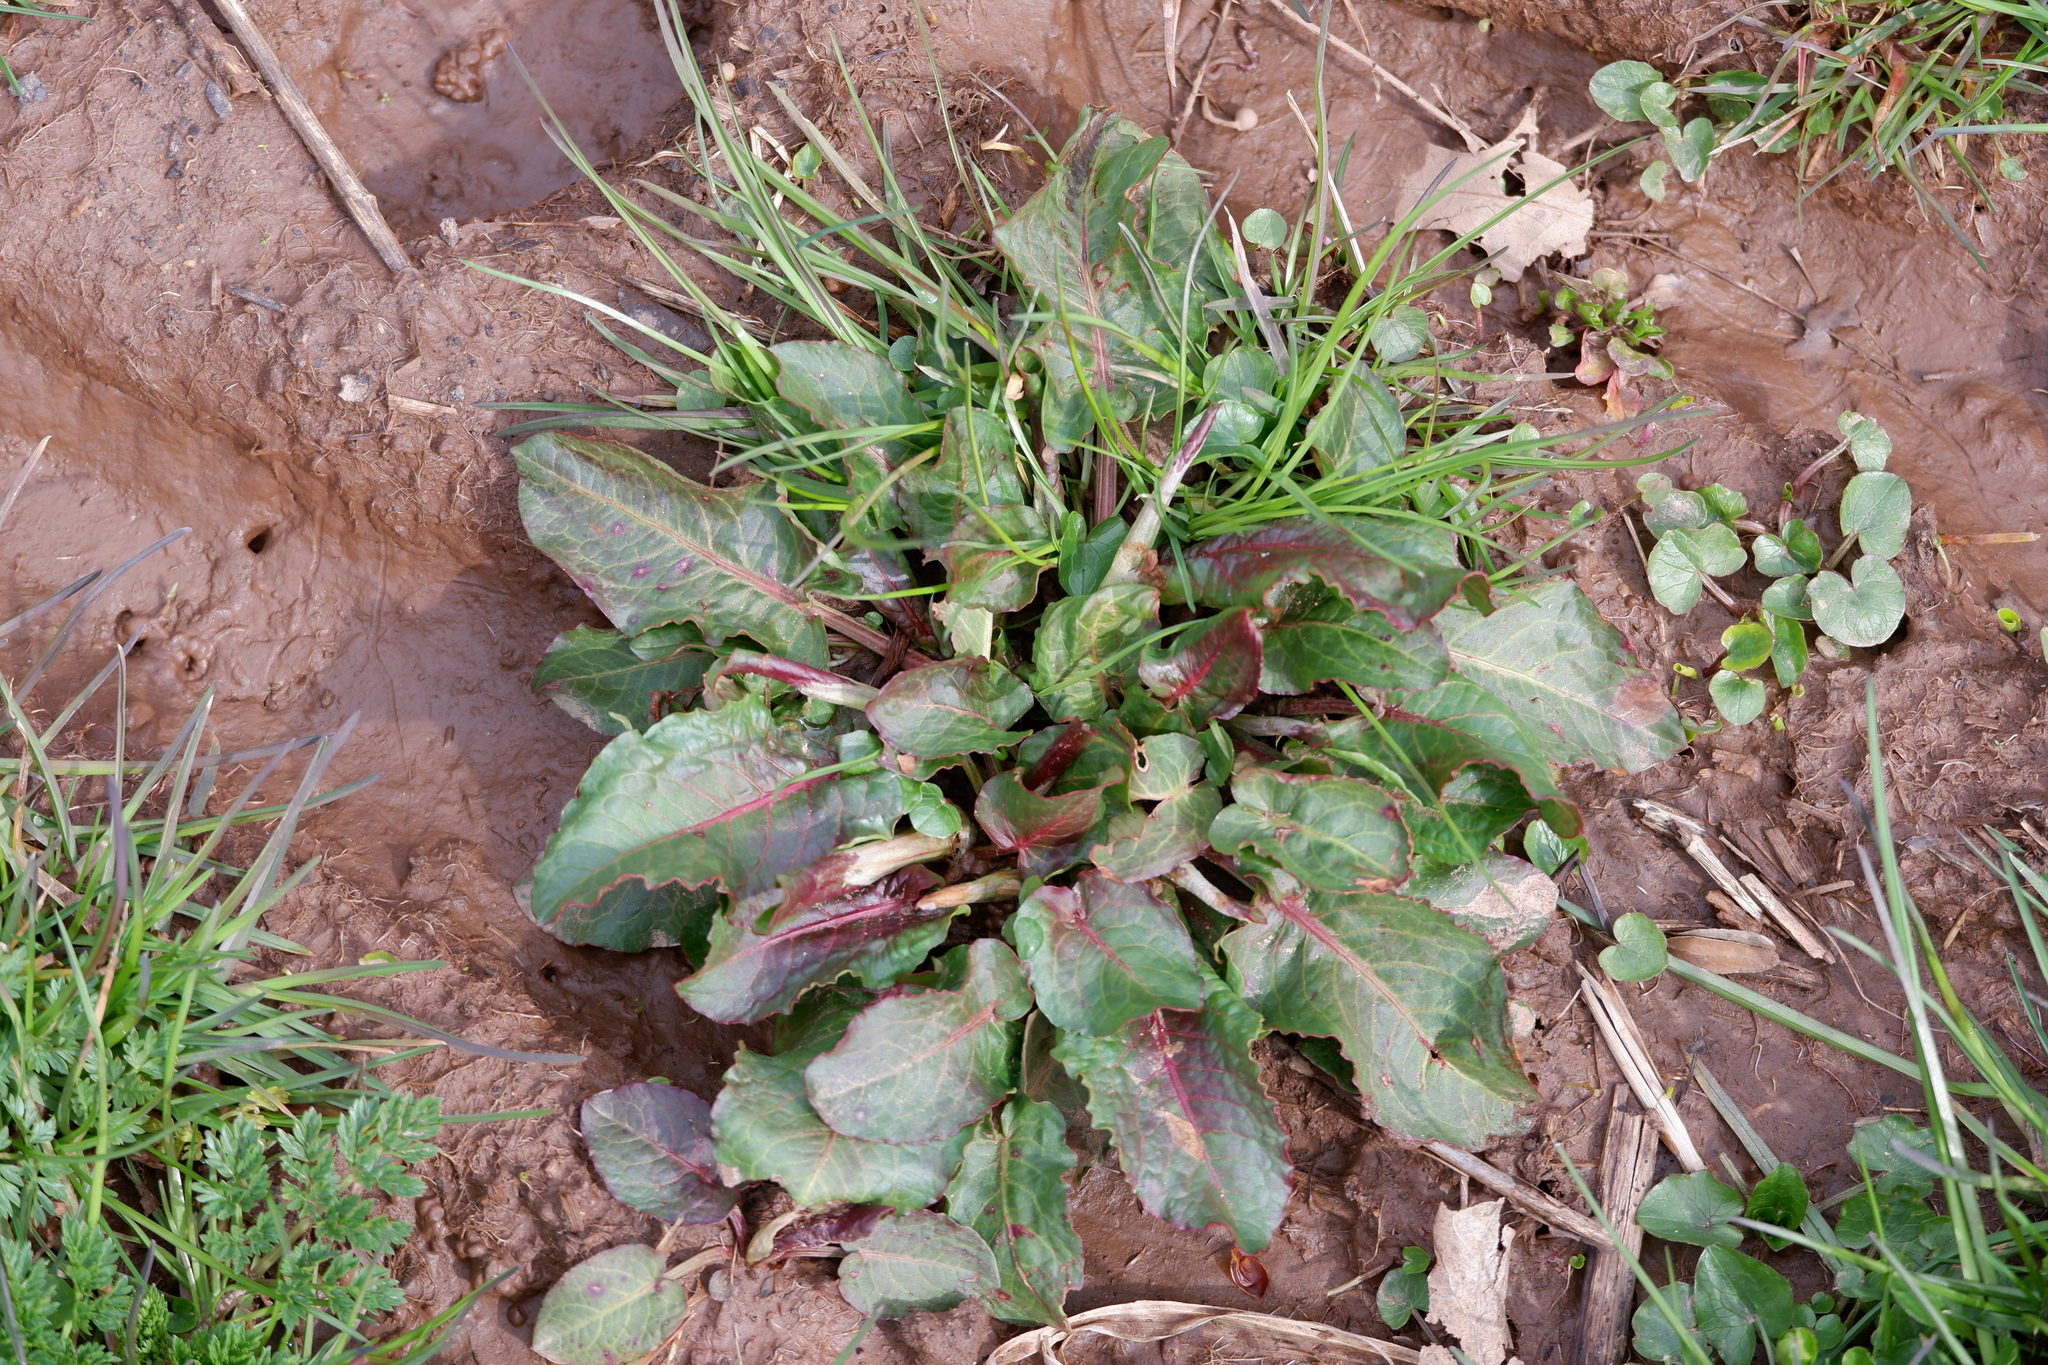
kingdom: Fungi
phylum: Ascomycota
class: Dothideomycetes
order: Mycosphaerellales
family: Mycosphaerellaceae
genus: Ramularia
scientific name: Ramularia rubella
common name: Red dock spot
